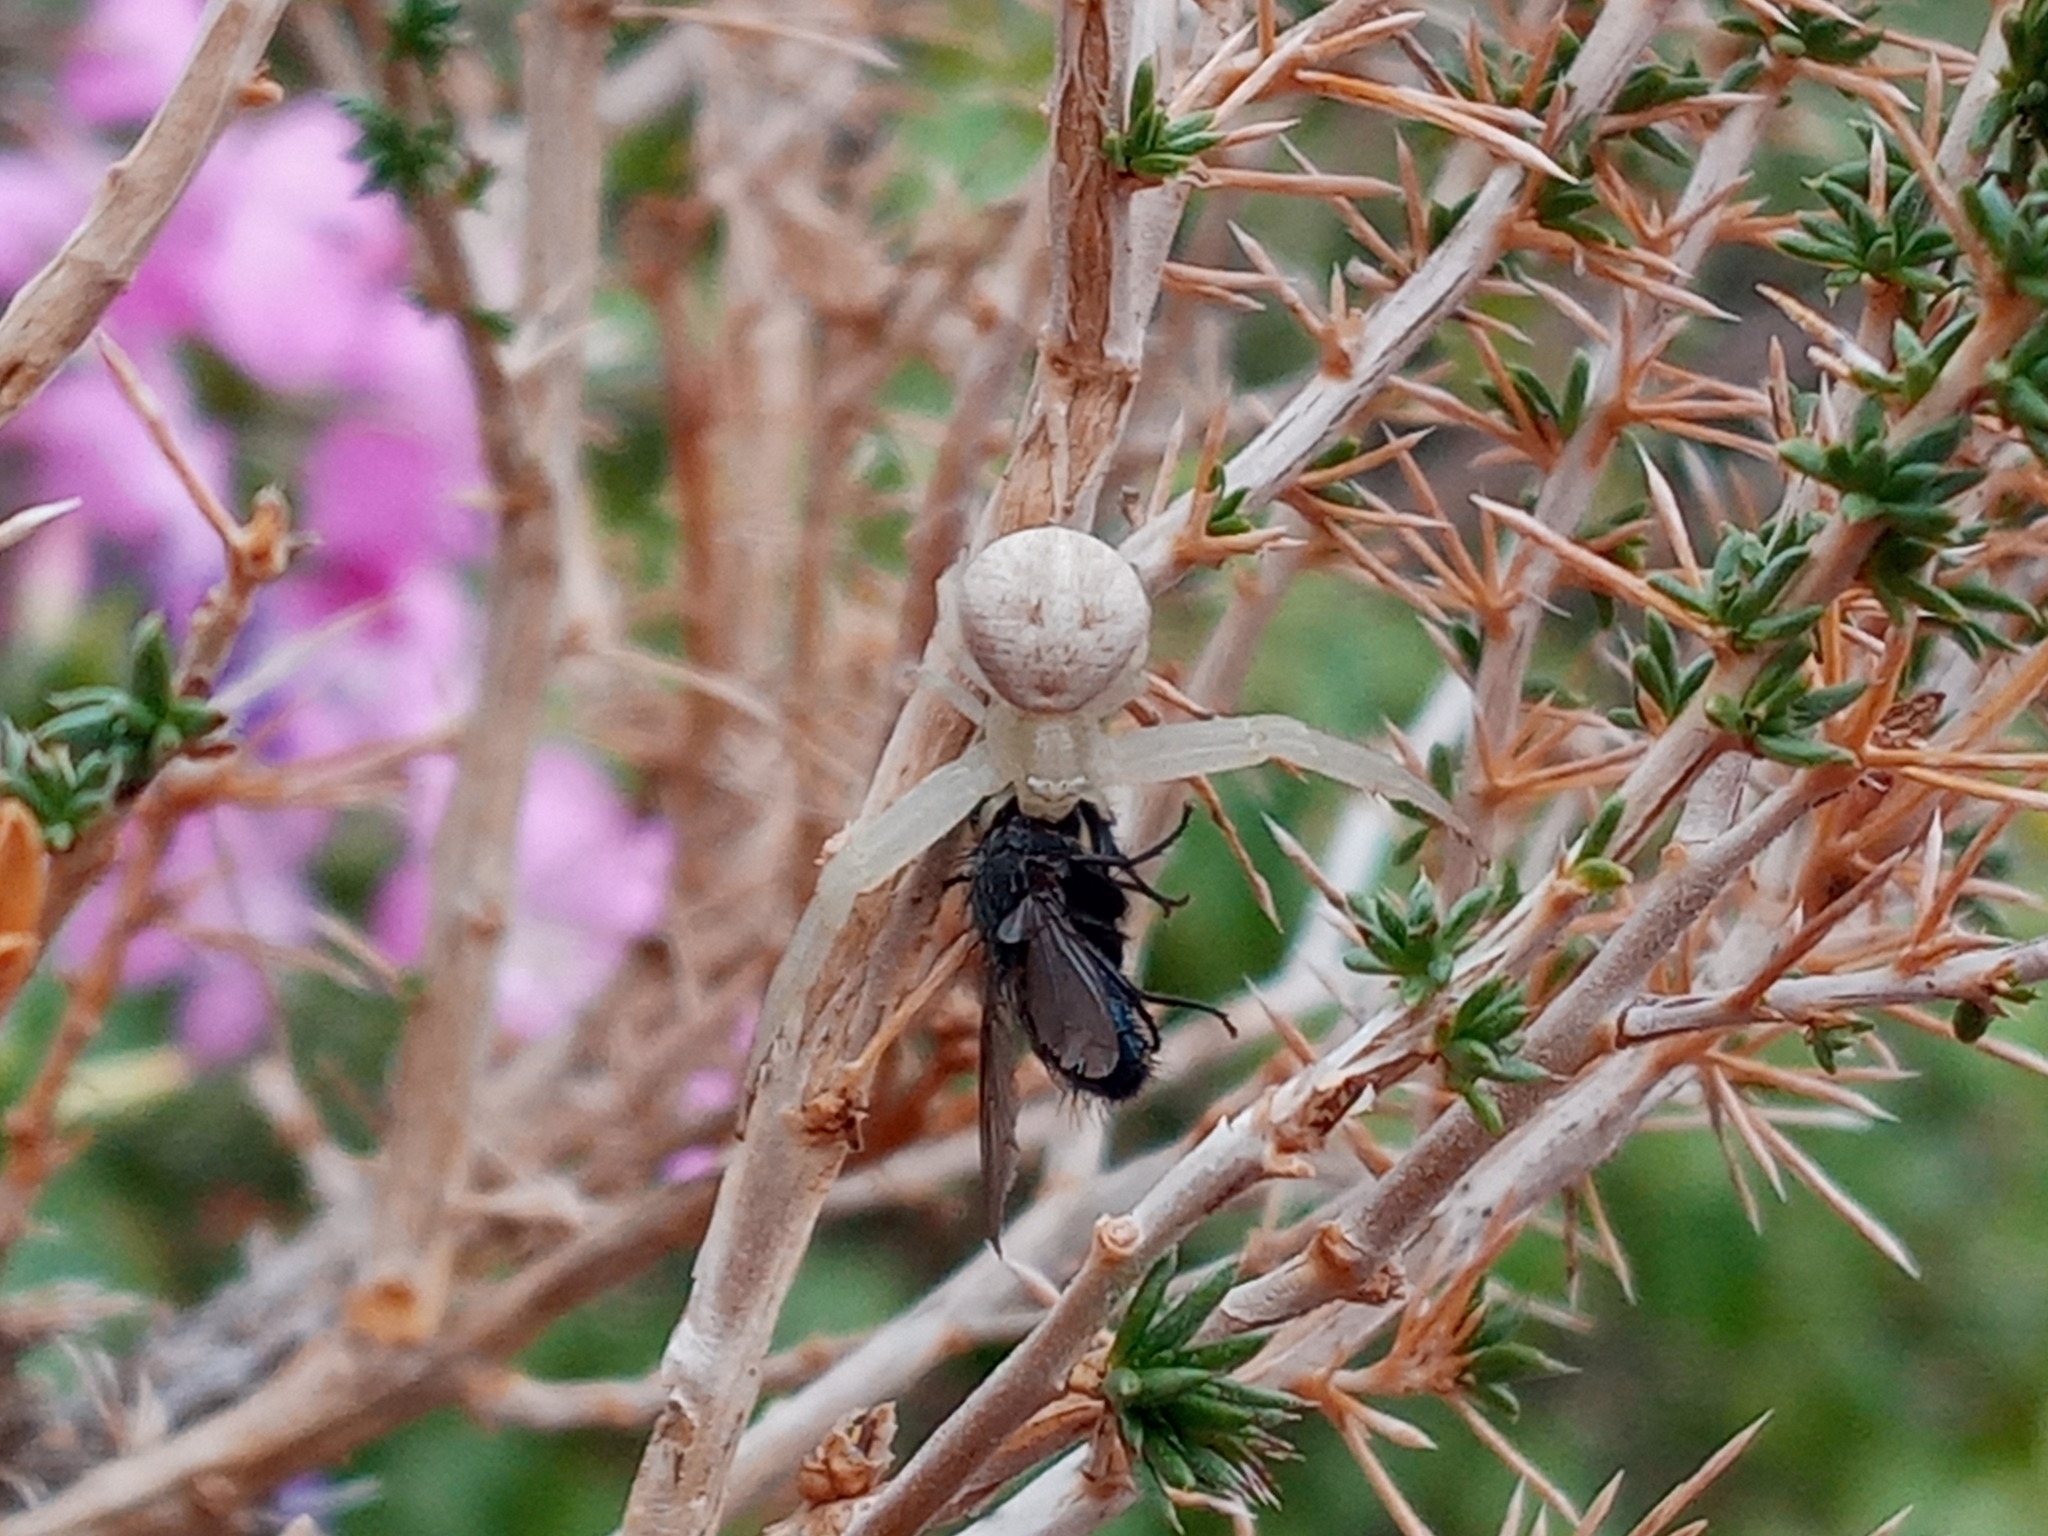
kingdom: Animalia
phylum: Arthropoda
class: Arachnida
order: Araneae
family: Thomisidae
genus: Misumena
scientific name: Misumena vatia
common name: Goldenrod crab spider
